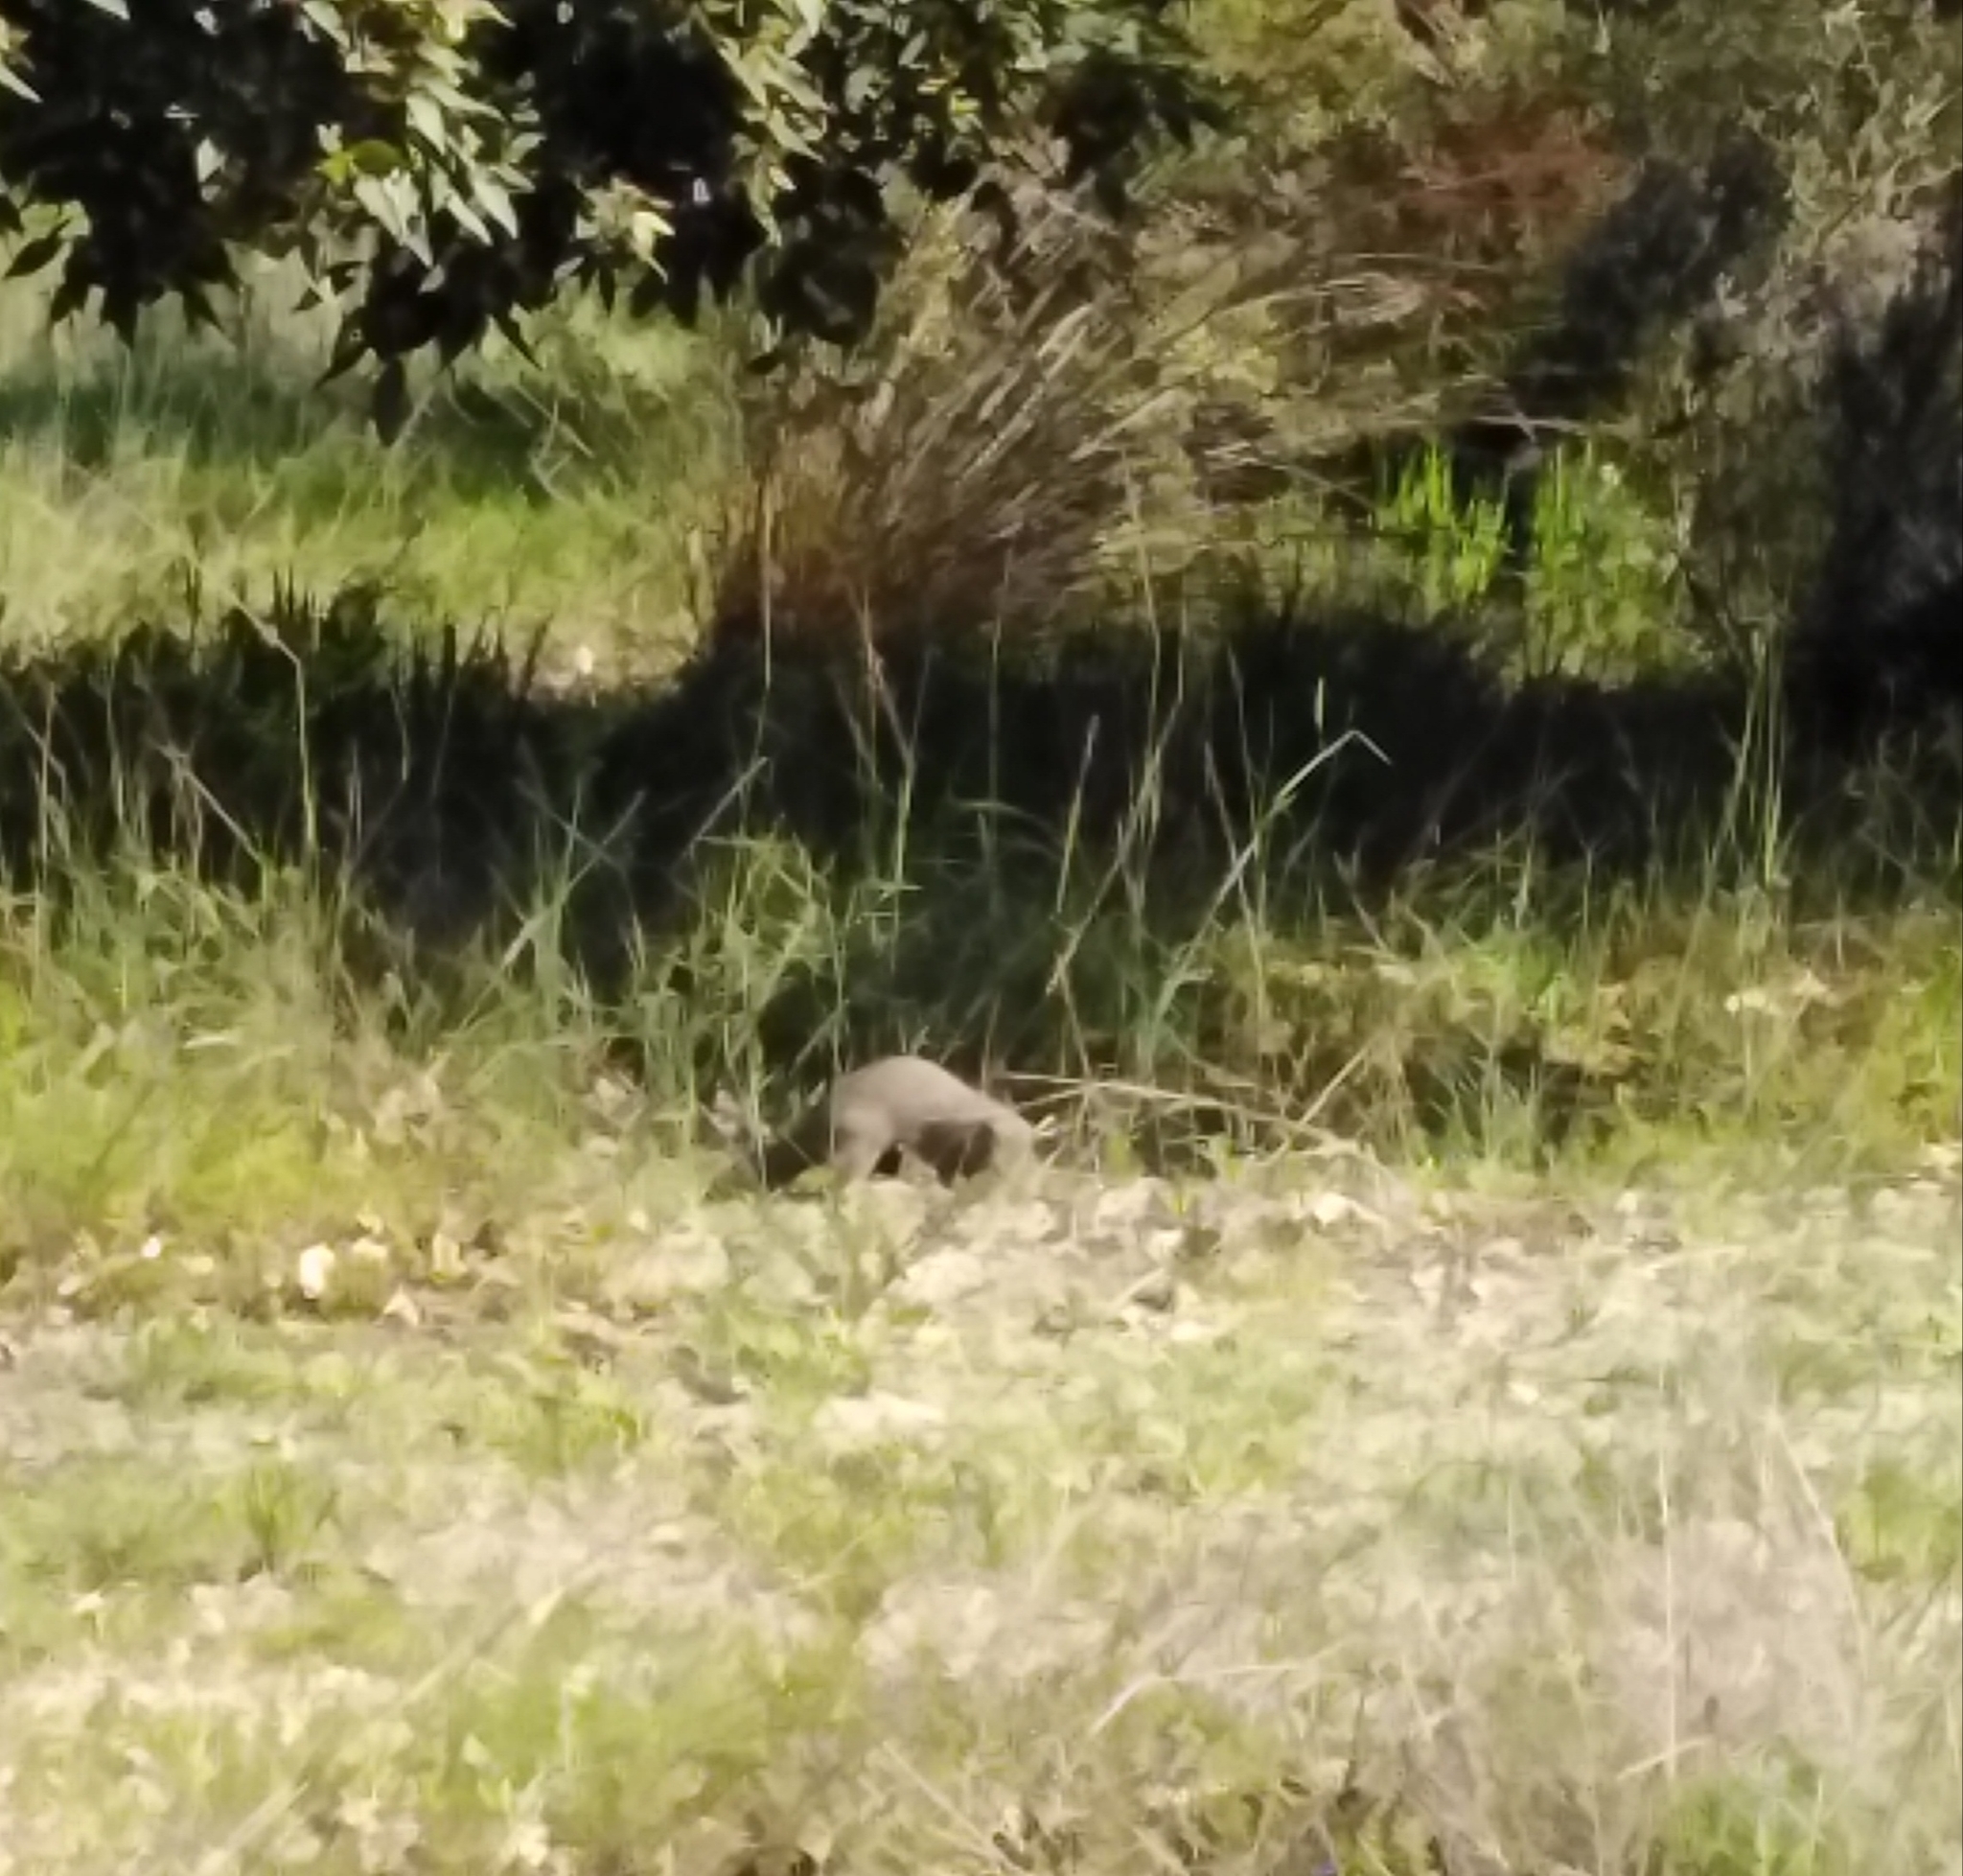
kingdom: Animalia
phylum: Chordata
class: Mammalia
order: Carnivora
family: Herpestidae
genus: Galerella
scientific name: Galerella pulverulenta
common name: Cape gray mongoose
